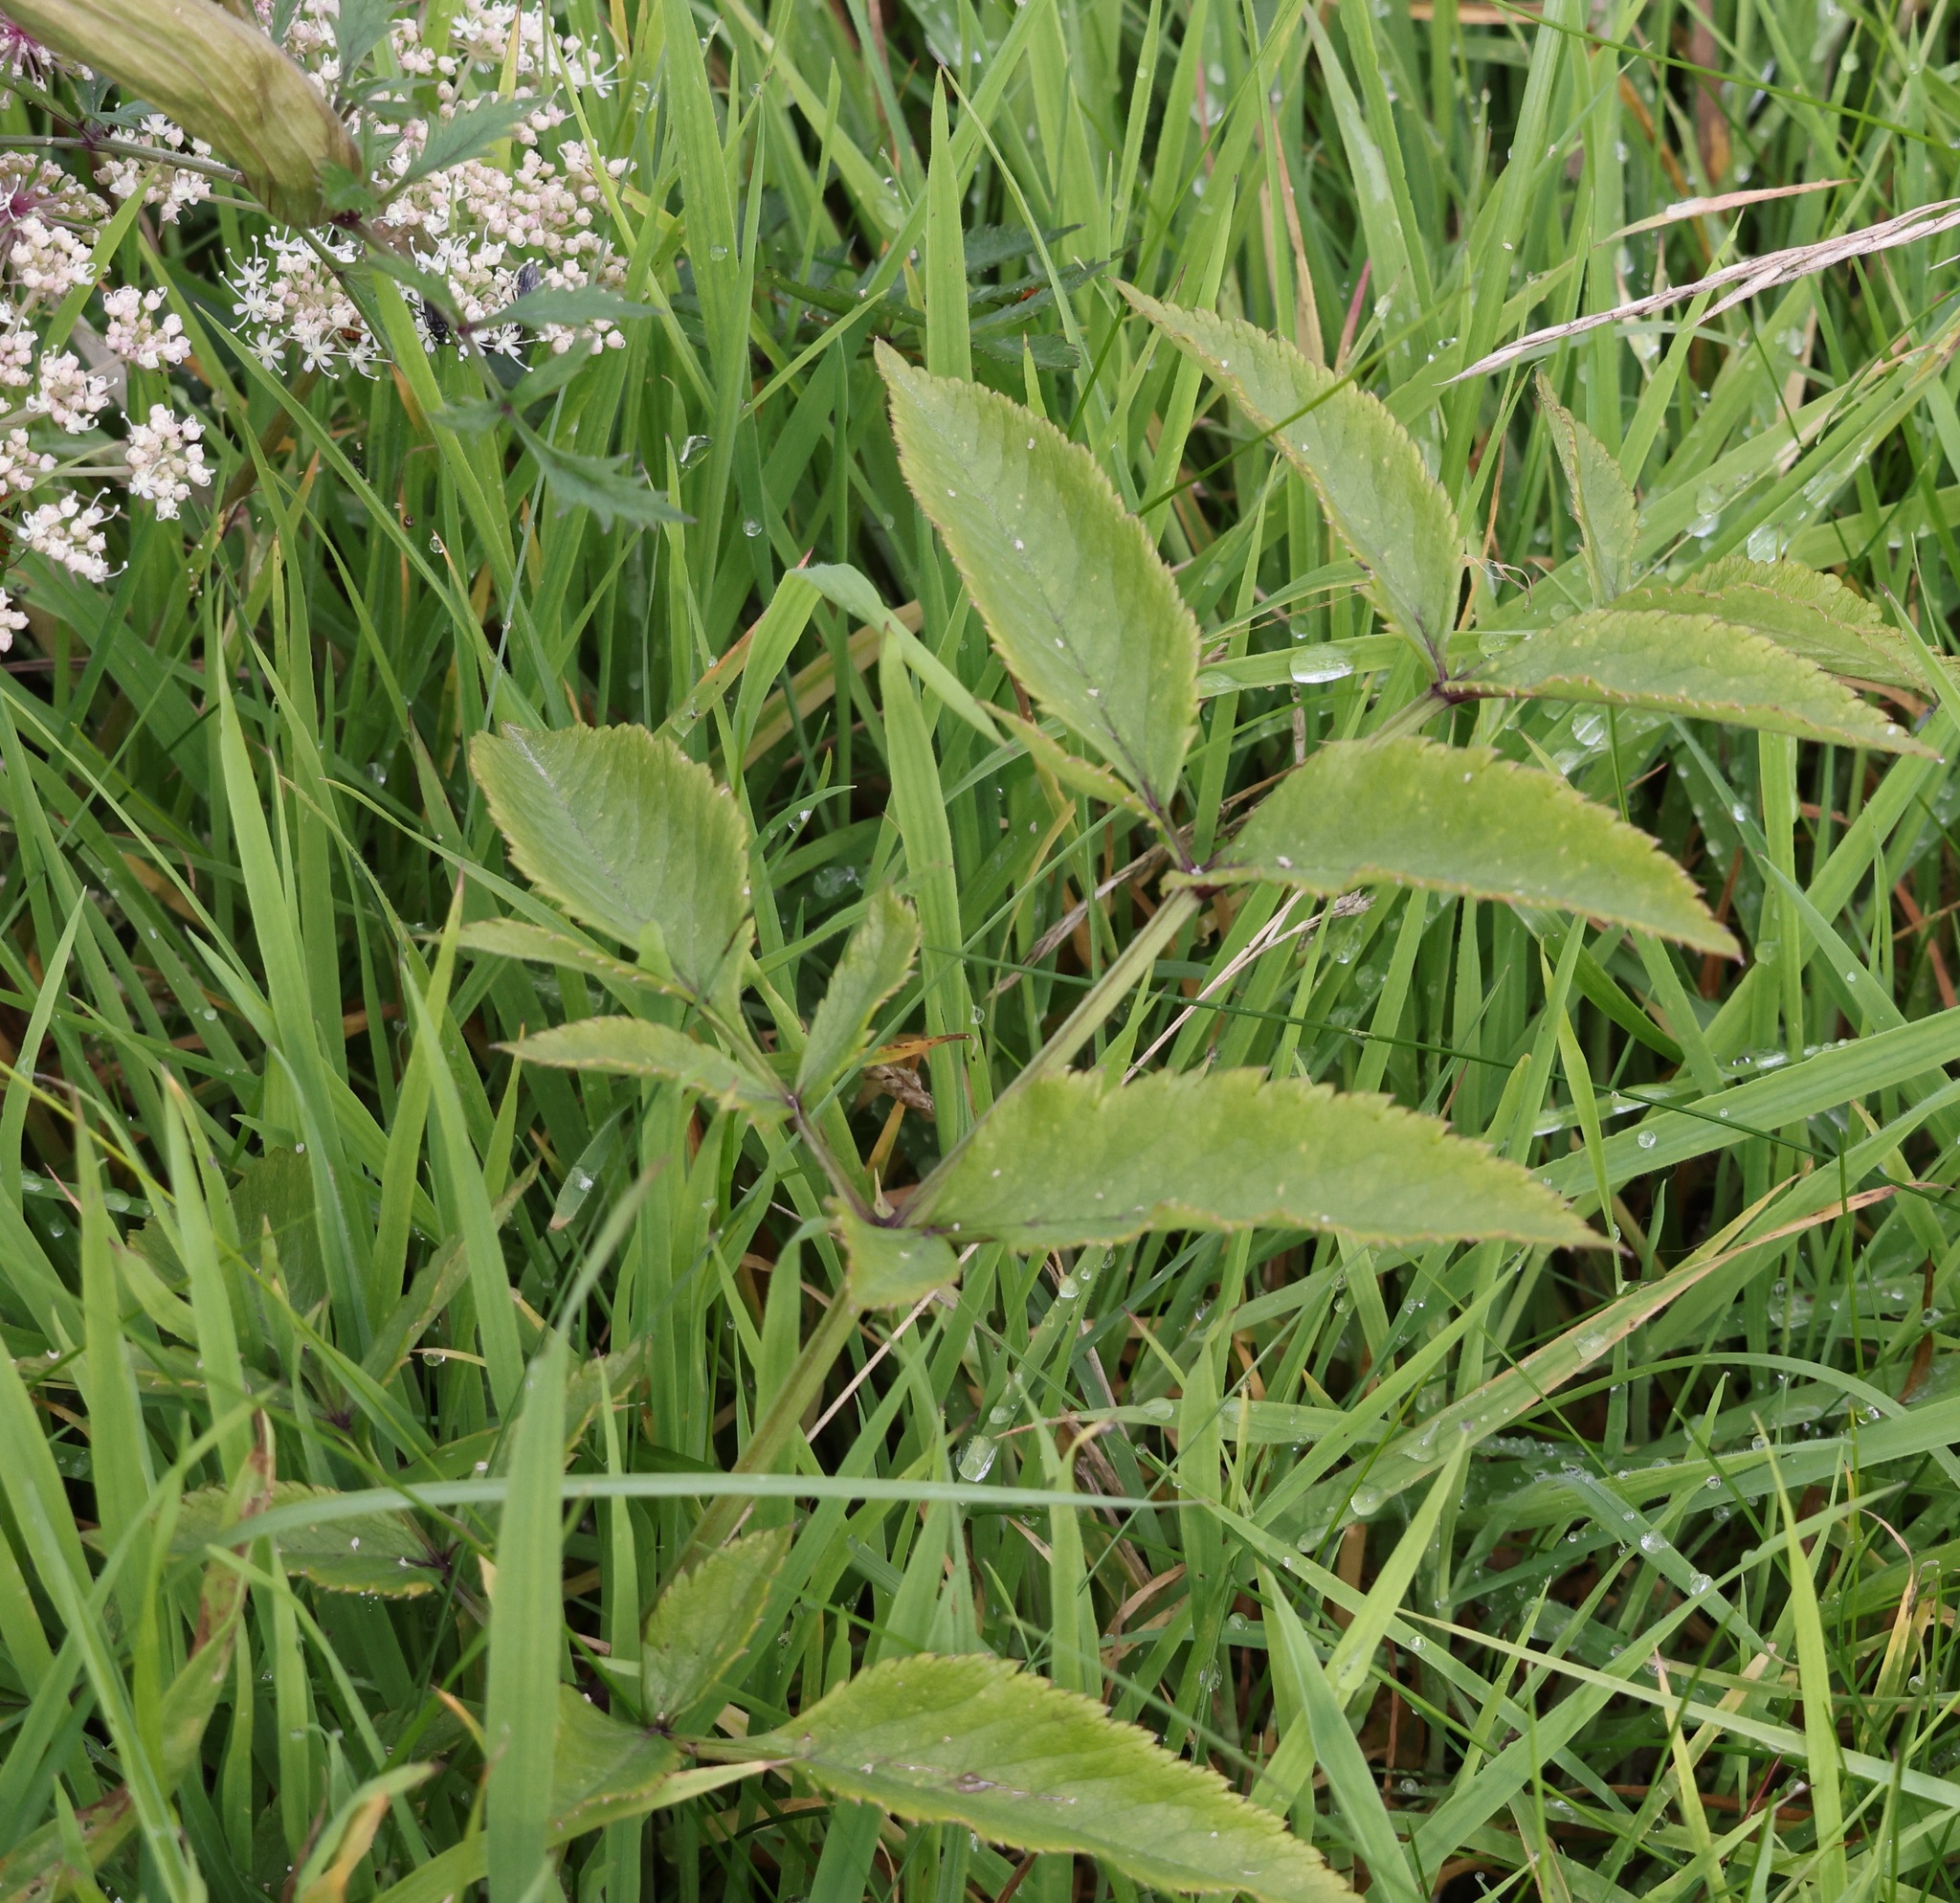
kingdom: Plantae
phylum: Tracheophyta
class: Magnoliopsida
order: Apiales
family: Apiaceae
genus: Angelica
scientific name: Angelica sylvestris
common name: Wild angelica
